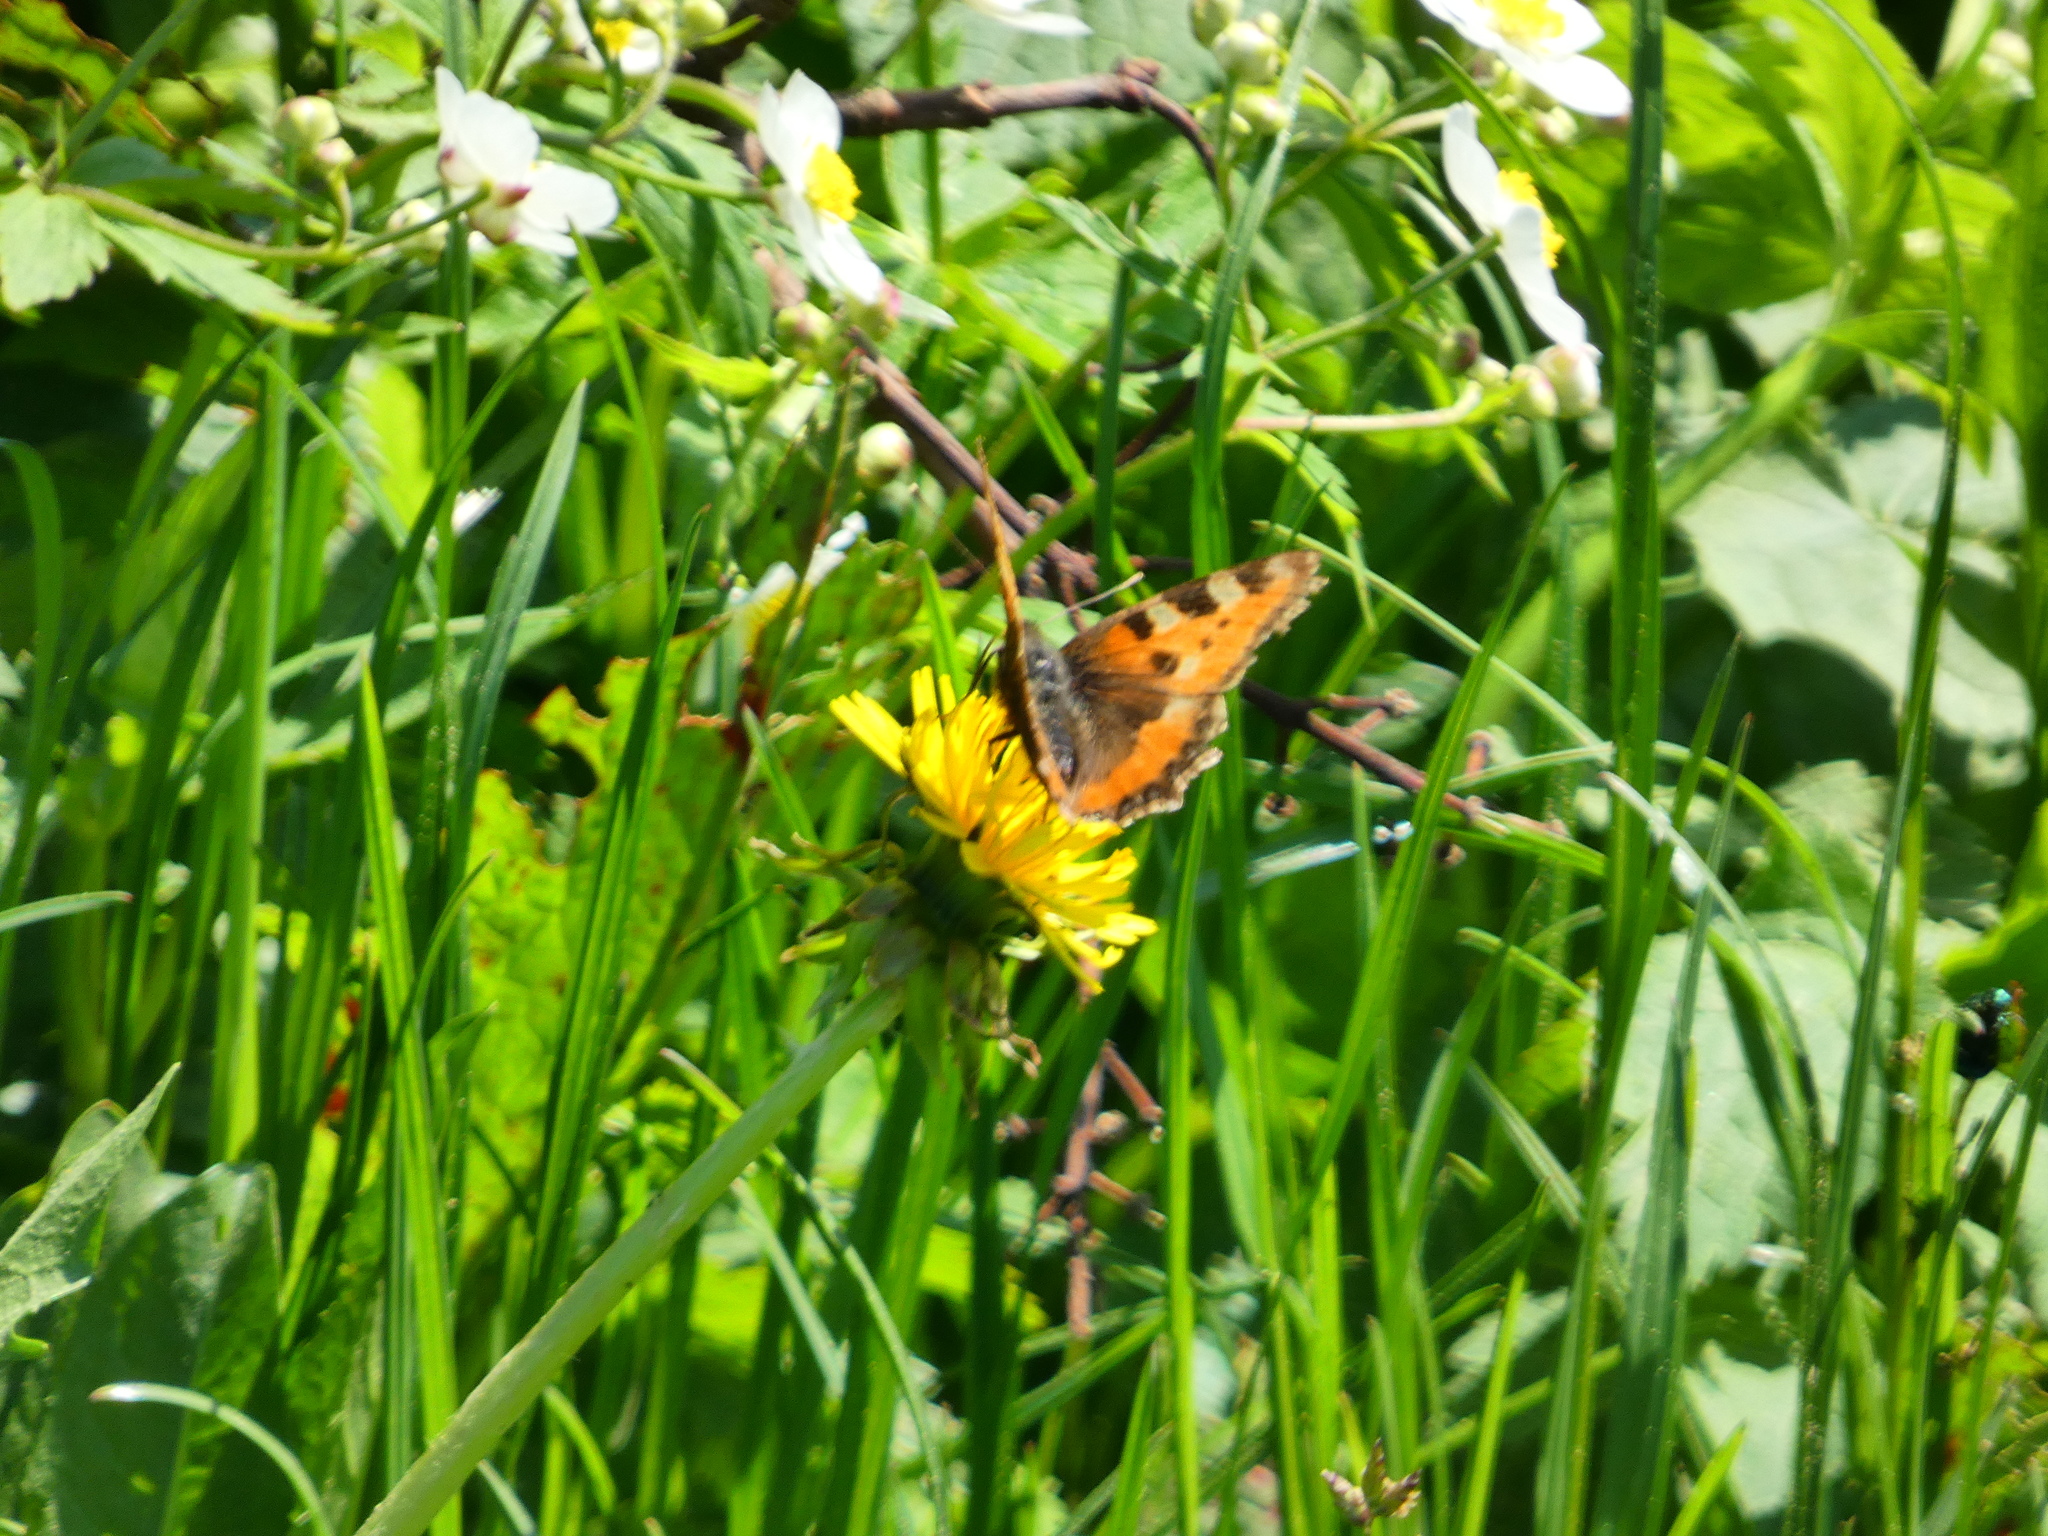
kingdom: Animalia
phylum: Arthropoda
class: Insecta
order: Lepidoptera
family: Nymphalidae
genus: Aglais
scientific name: Aglais urticae
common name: Small tortoiseshell
